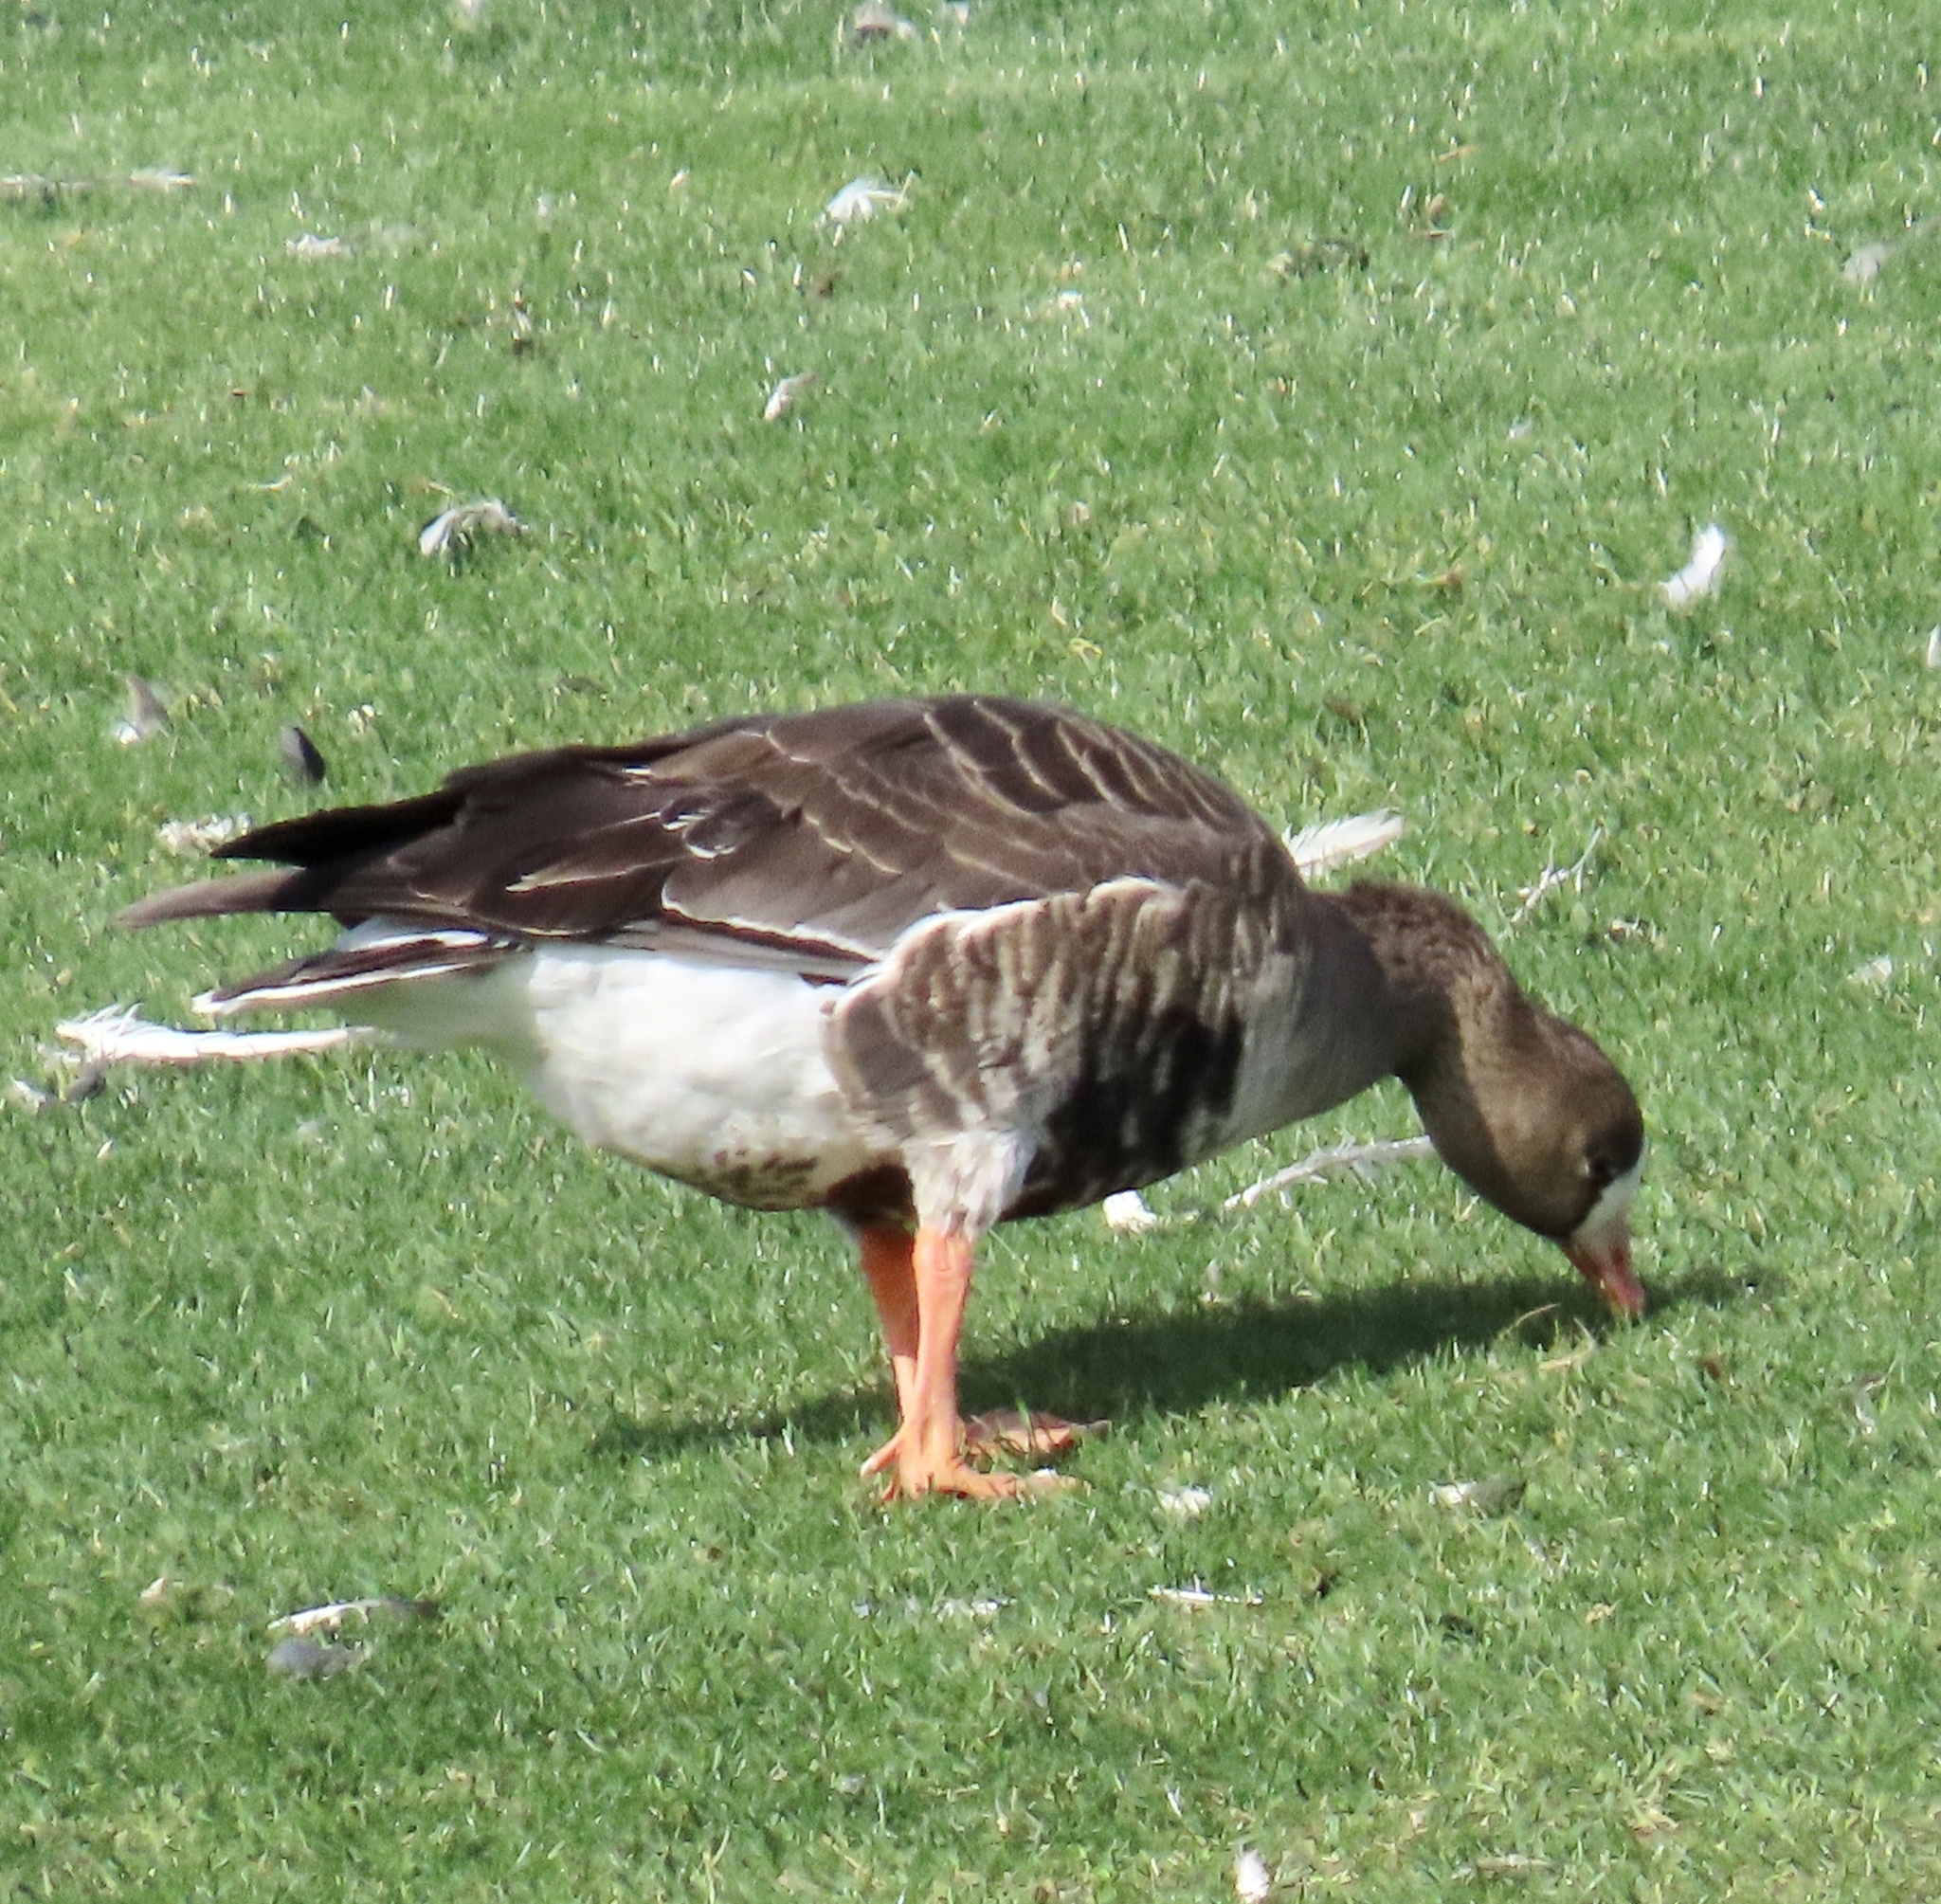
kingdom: Animalia
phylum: Chordata
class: Aves
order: Anseriformes
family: Anatidae
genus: Anser
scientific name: Anser albifrons
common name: Greater white-fronted goose
